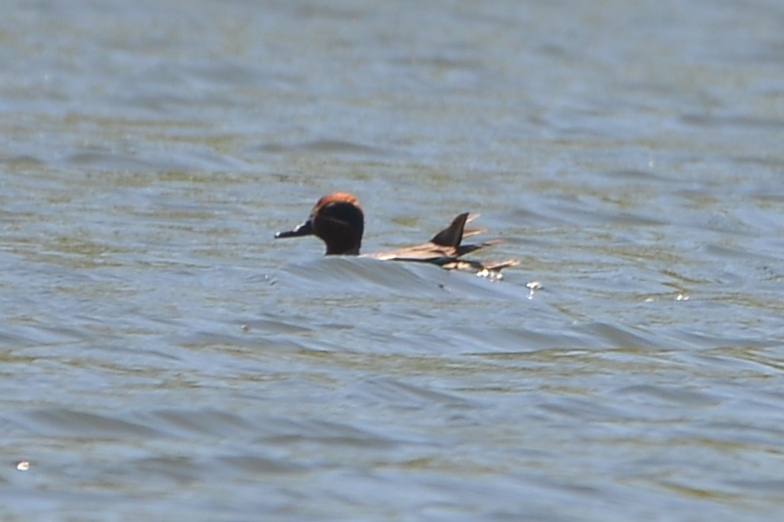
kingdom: Animalia
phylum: Chordata
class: Aves
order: Anseriformes
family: Anatidae
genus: Anas
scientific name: Anas crecca
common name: Eurasian teal
